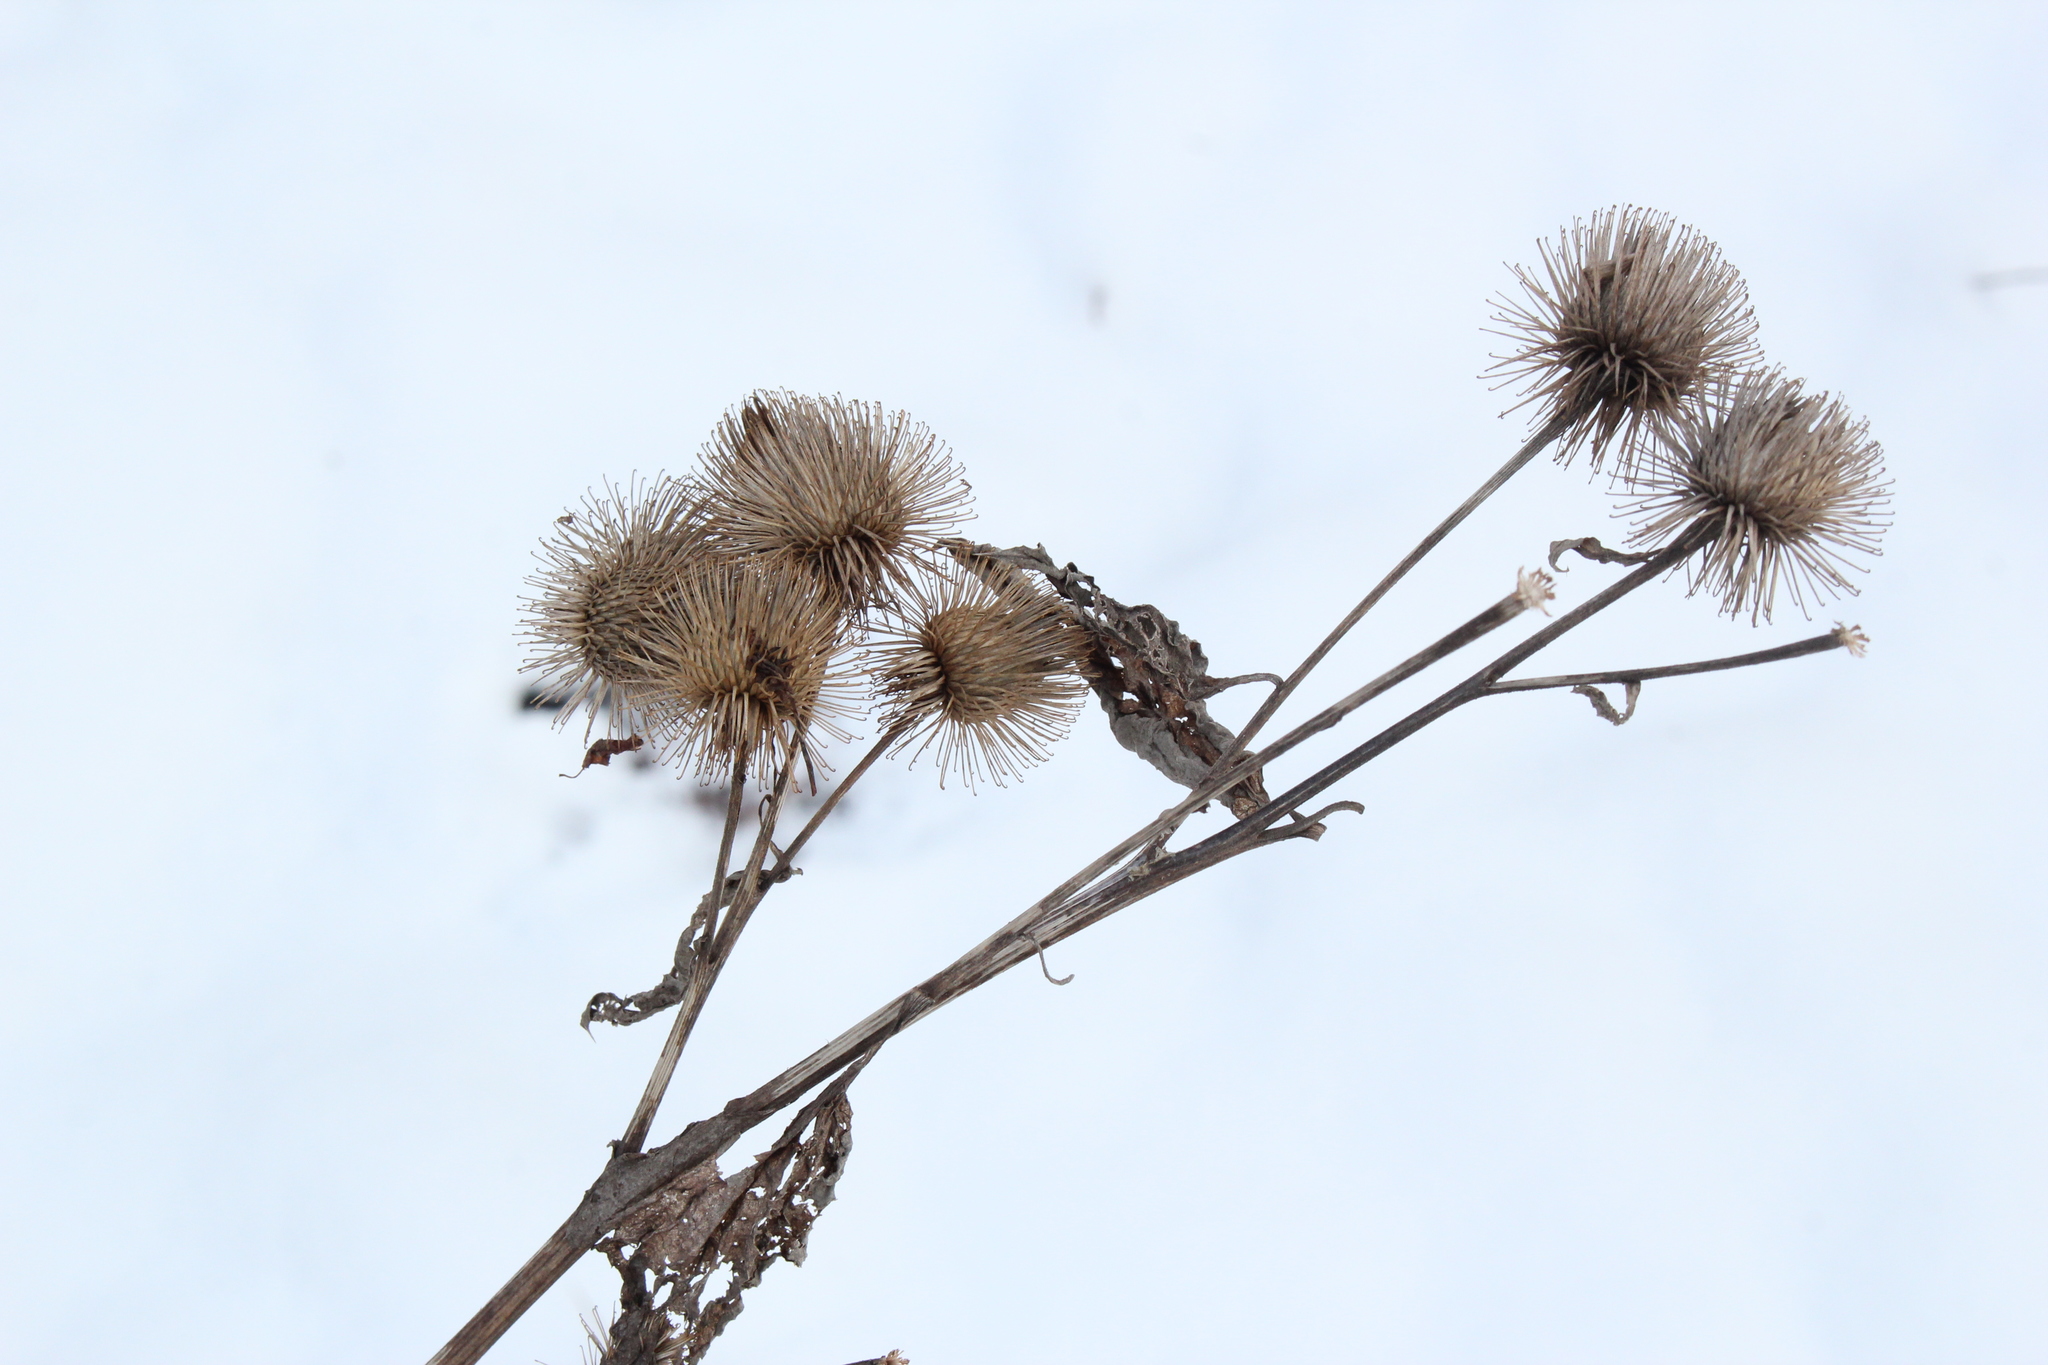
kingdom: Plantae
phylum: Tracheophyta
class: Magnoliopsida
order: Asterales
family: Asteraceae
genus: Arctium
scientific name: Arctium lappa
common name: Greater burdock
